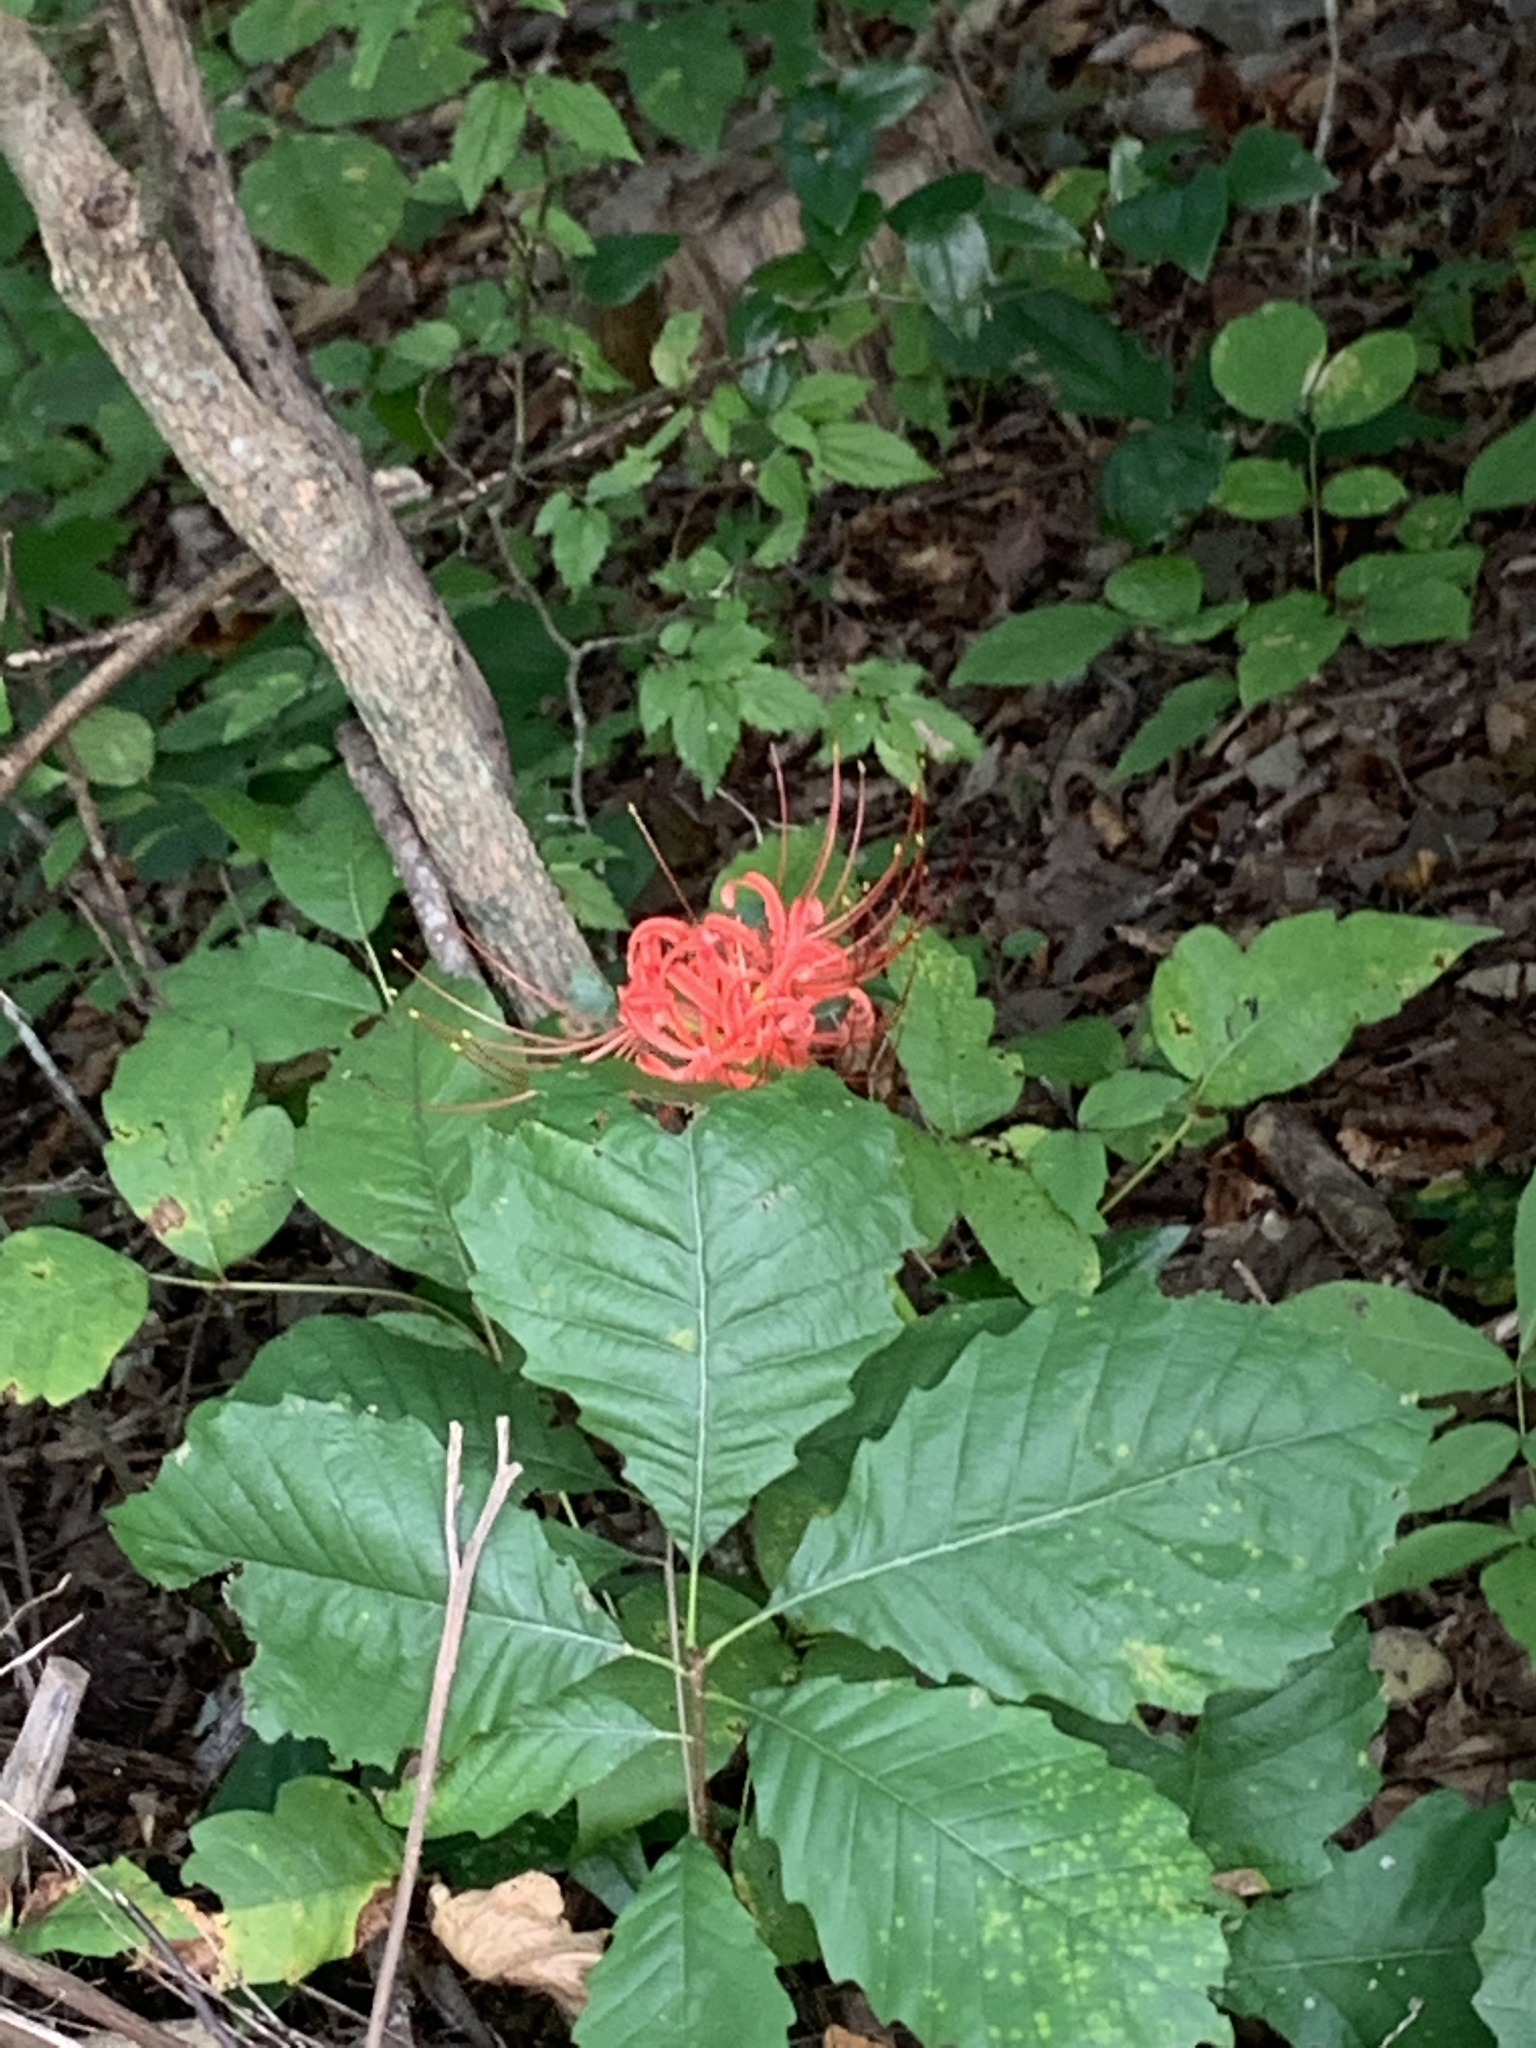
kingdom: Plantae
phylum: Tracheophyta
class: Liliopsida
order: Asparagales
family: Amaryllidaceae
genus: Lycoris
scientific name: Lycoris radiata
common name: Red spider lily
